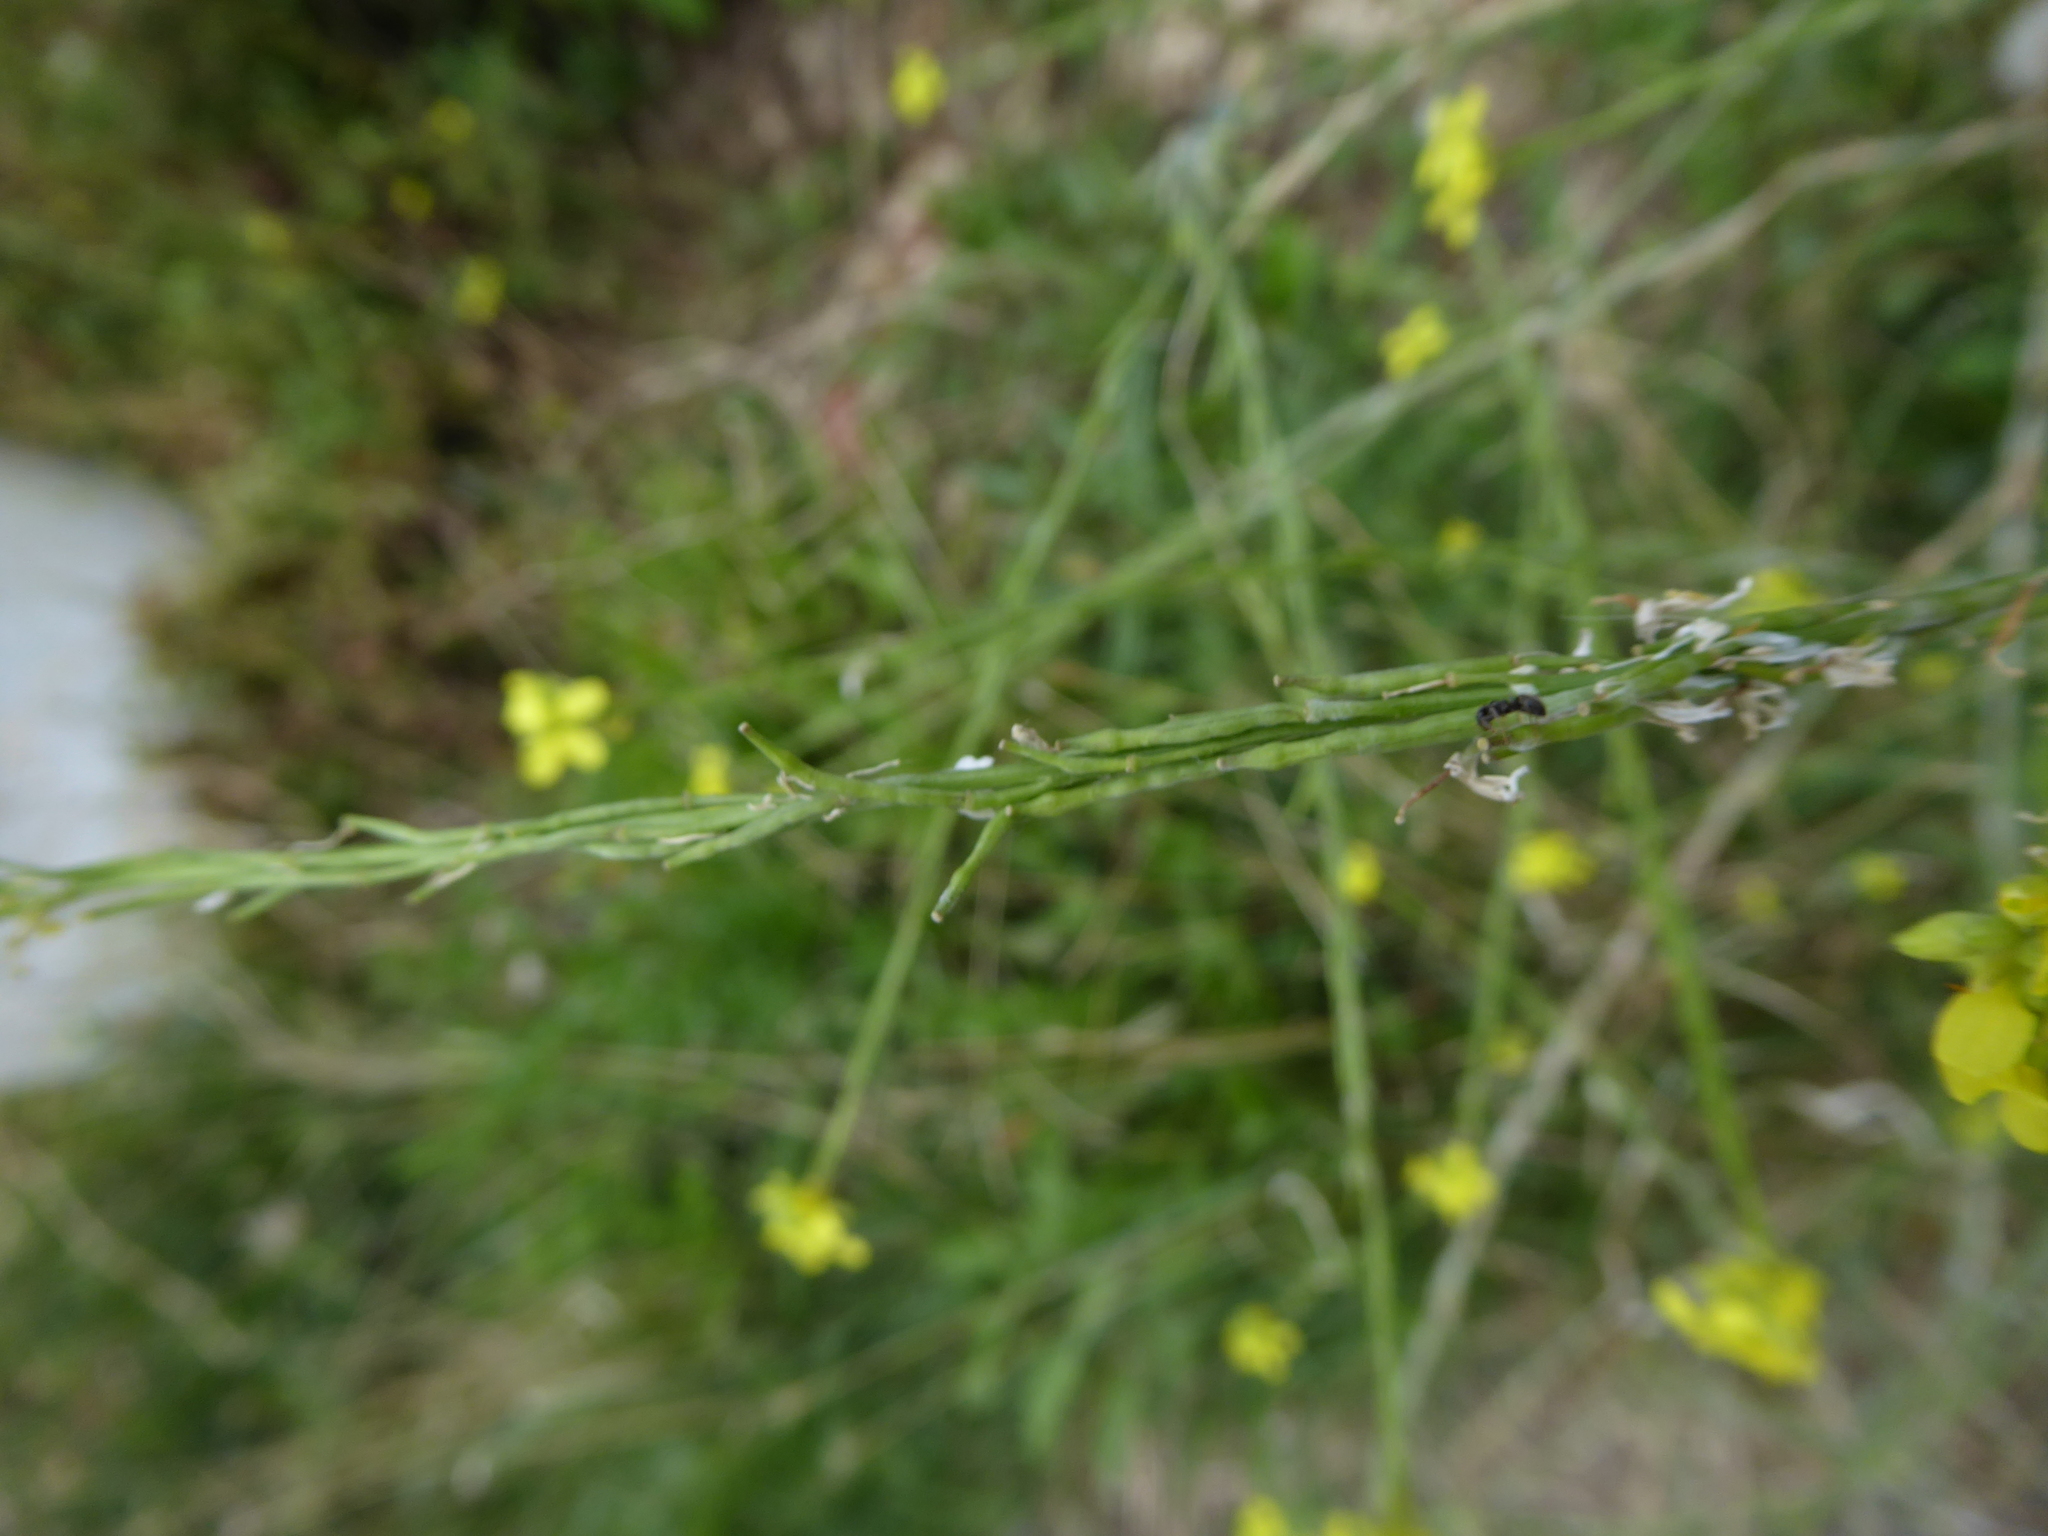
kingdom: Plantae
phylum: Tracheophyta
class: Magnoliopsida
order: Brassicales
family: Brassicaceae
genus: Hirschfeldia
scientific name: Hirschfeldia incana
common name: Hoary mustard
